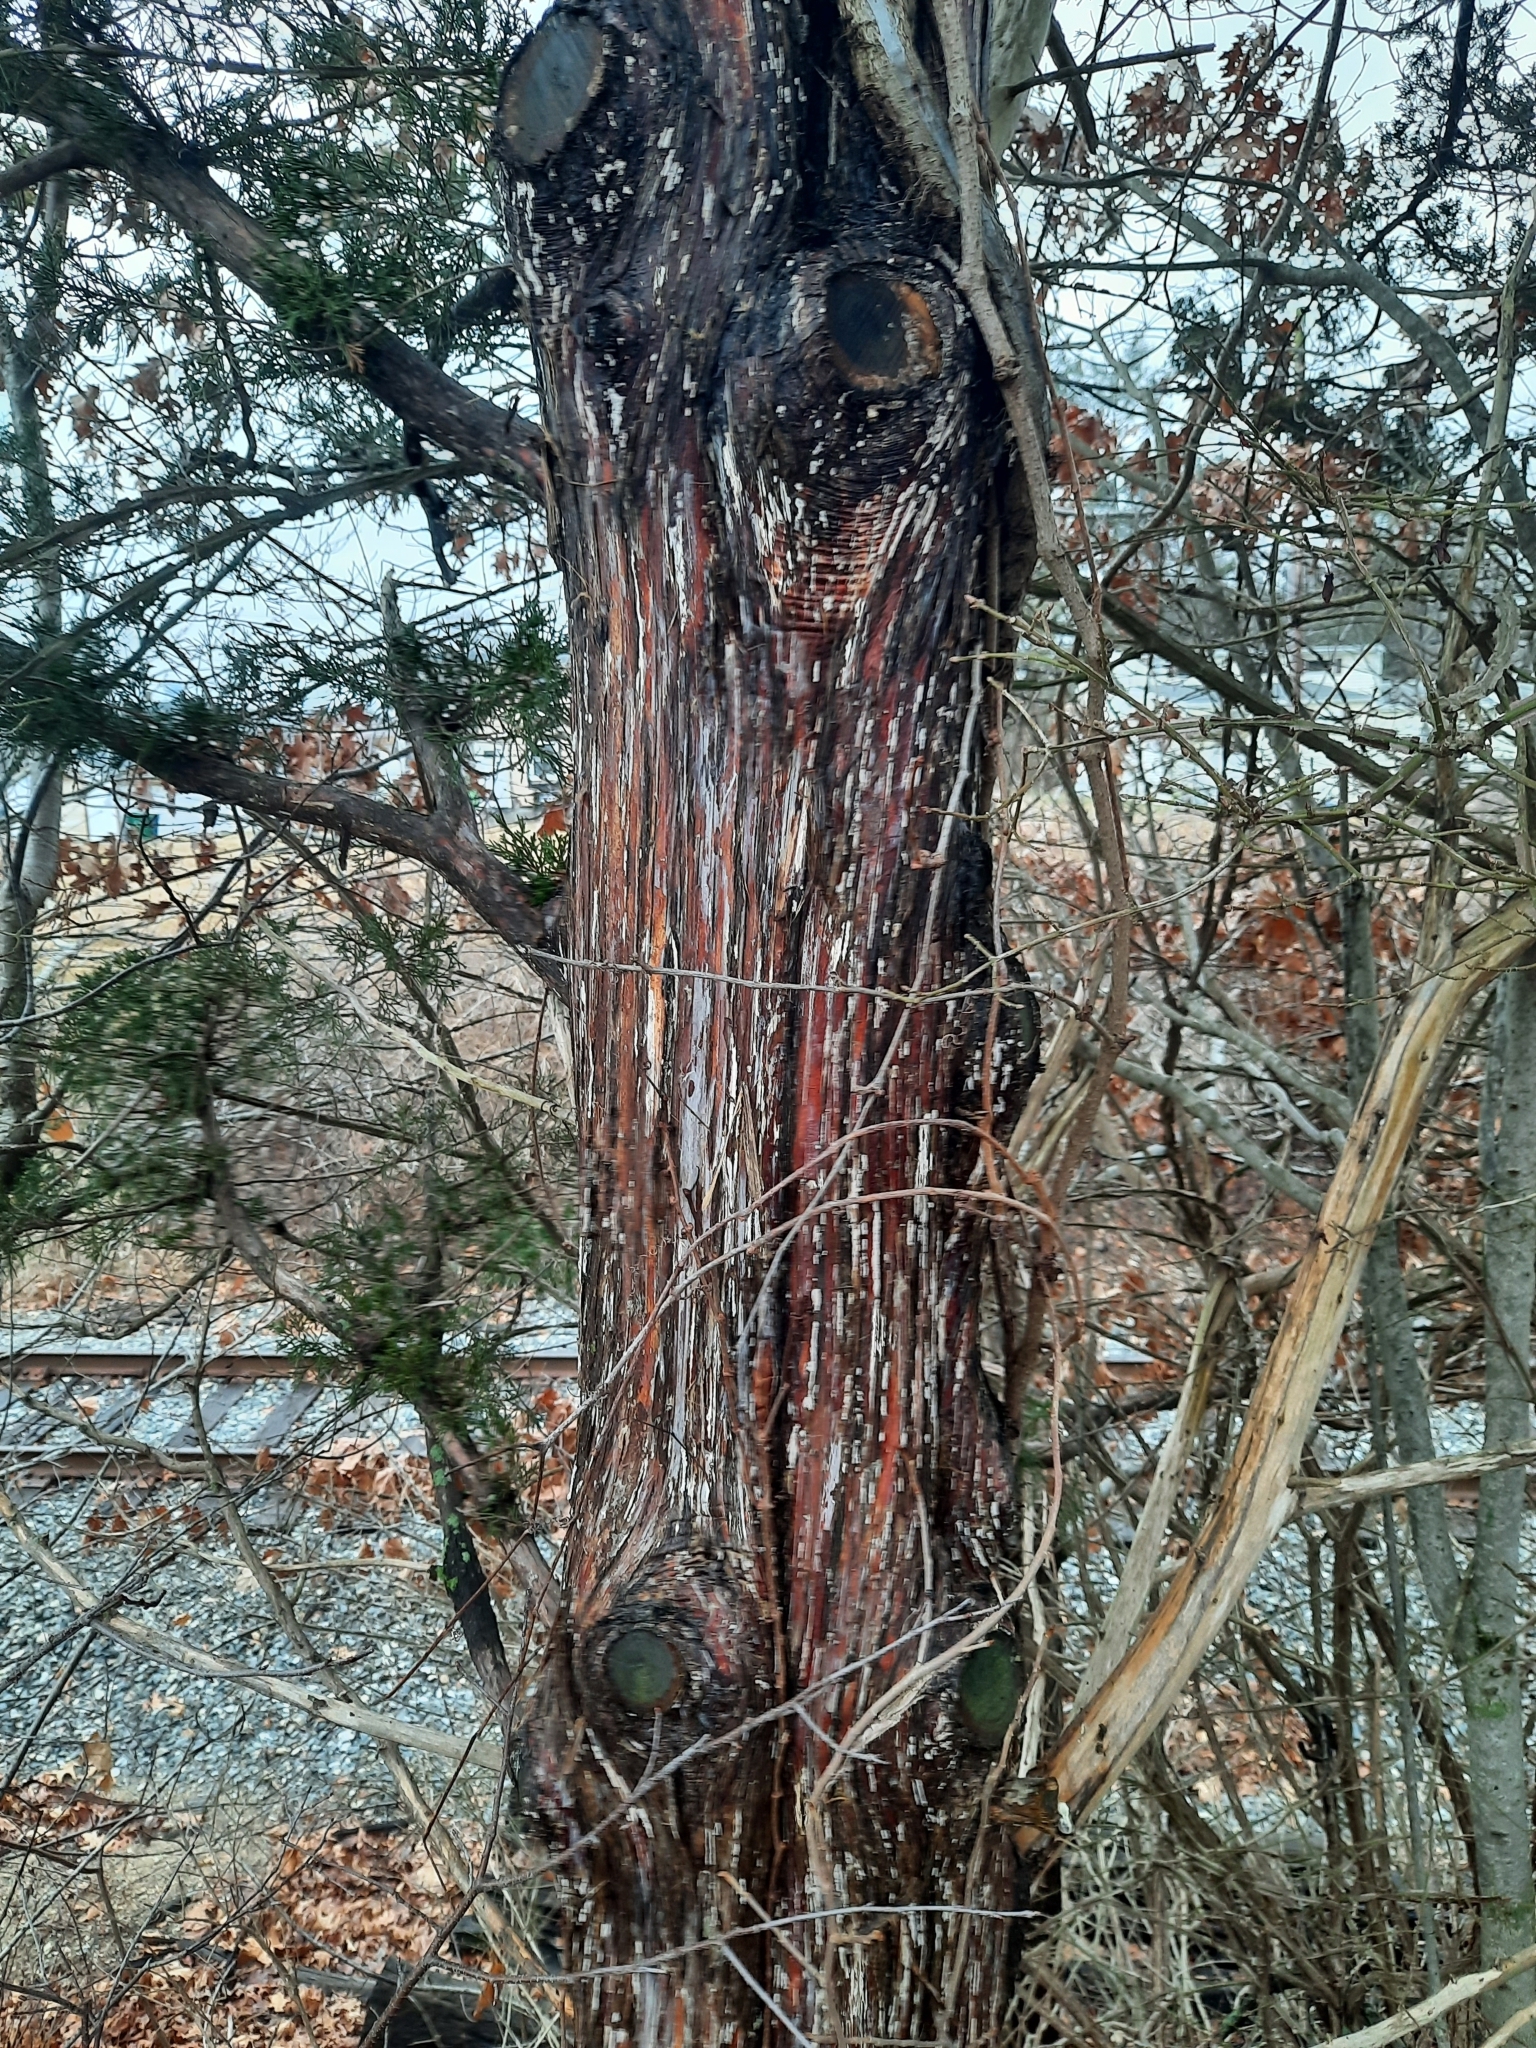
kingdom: Plantae
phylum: Tracheophyta
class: Pinopsida
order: Pinales
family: Cupressaceae
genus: Juniperus
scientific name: Juniperus virginiana
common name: Red juniper
